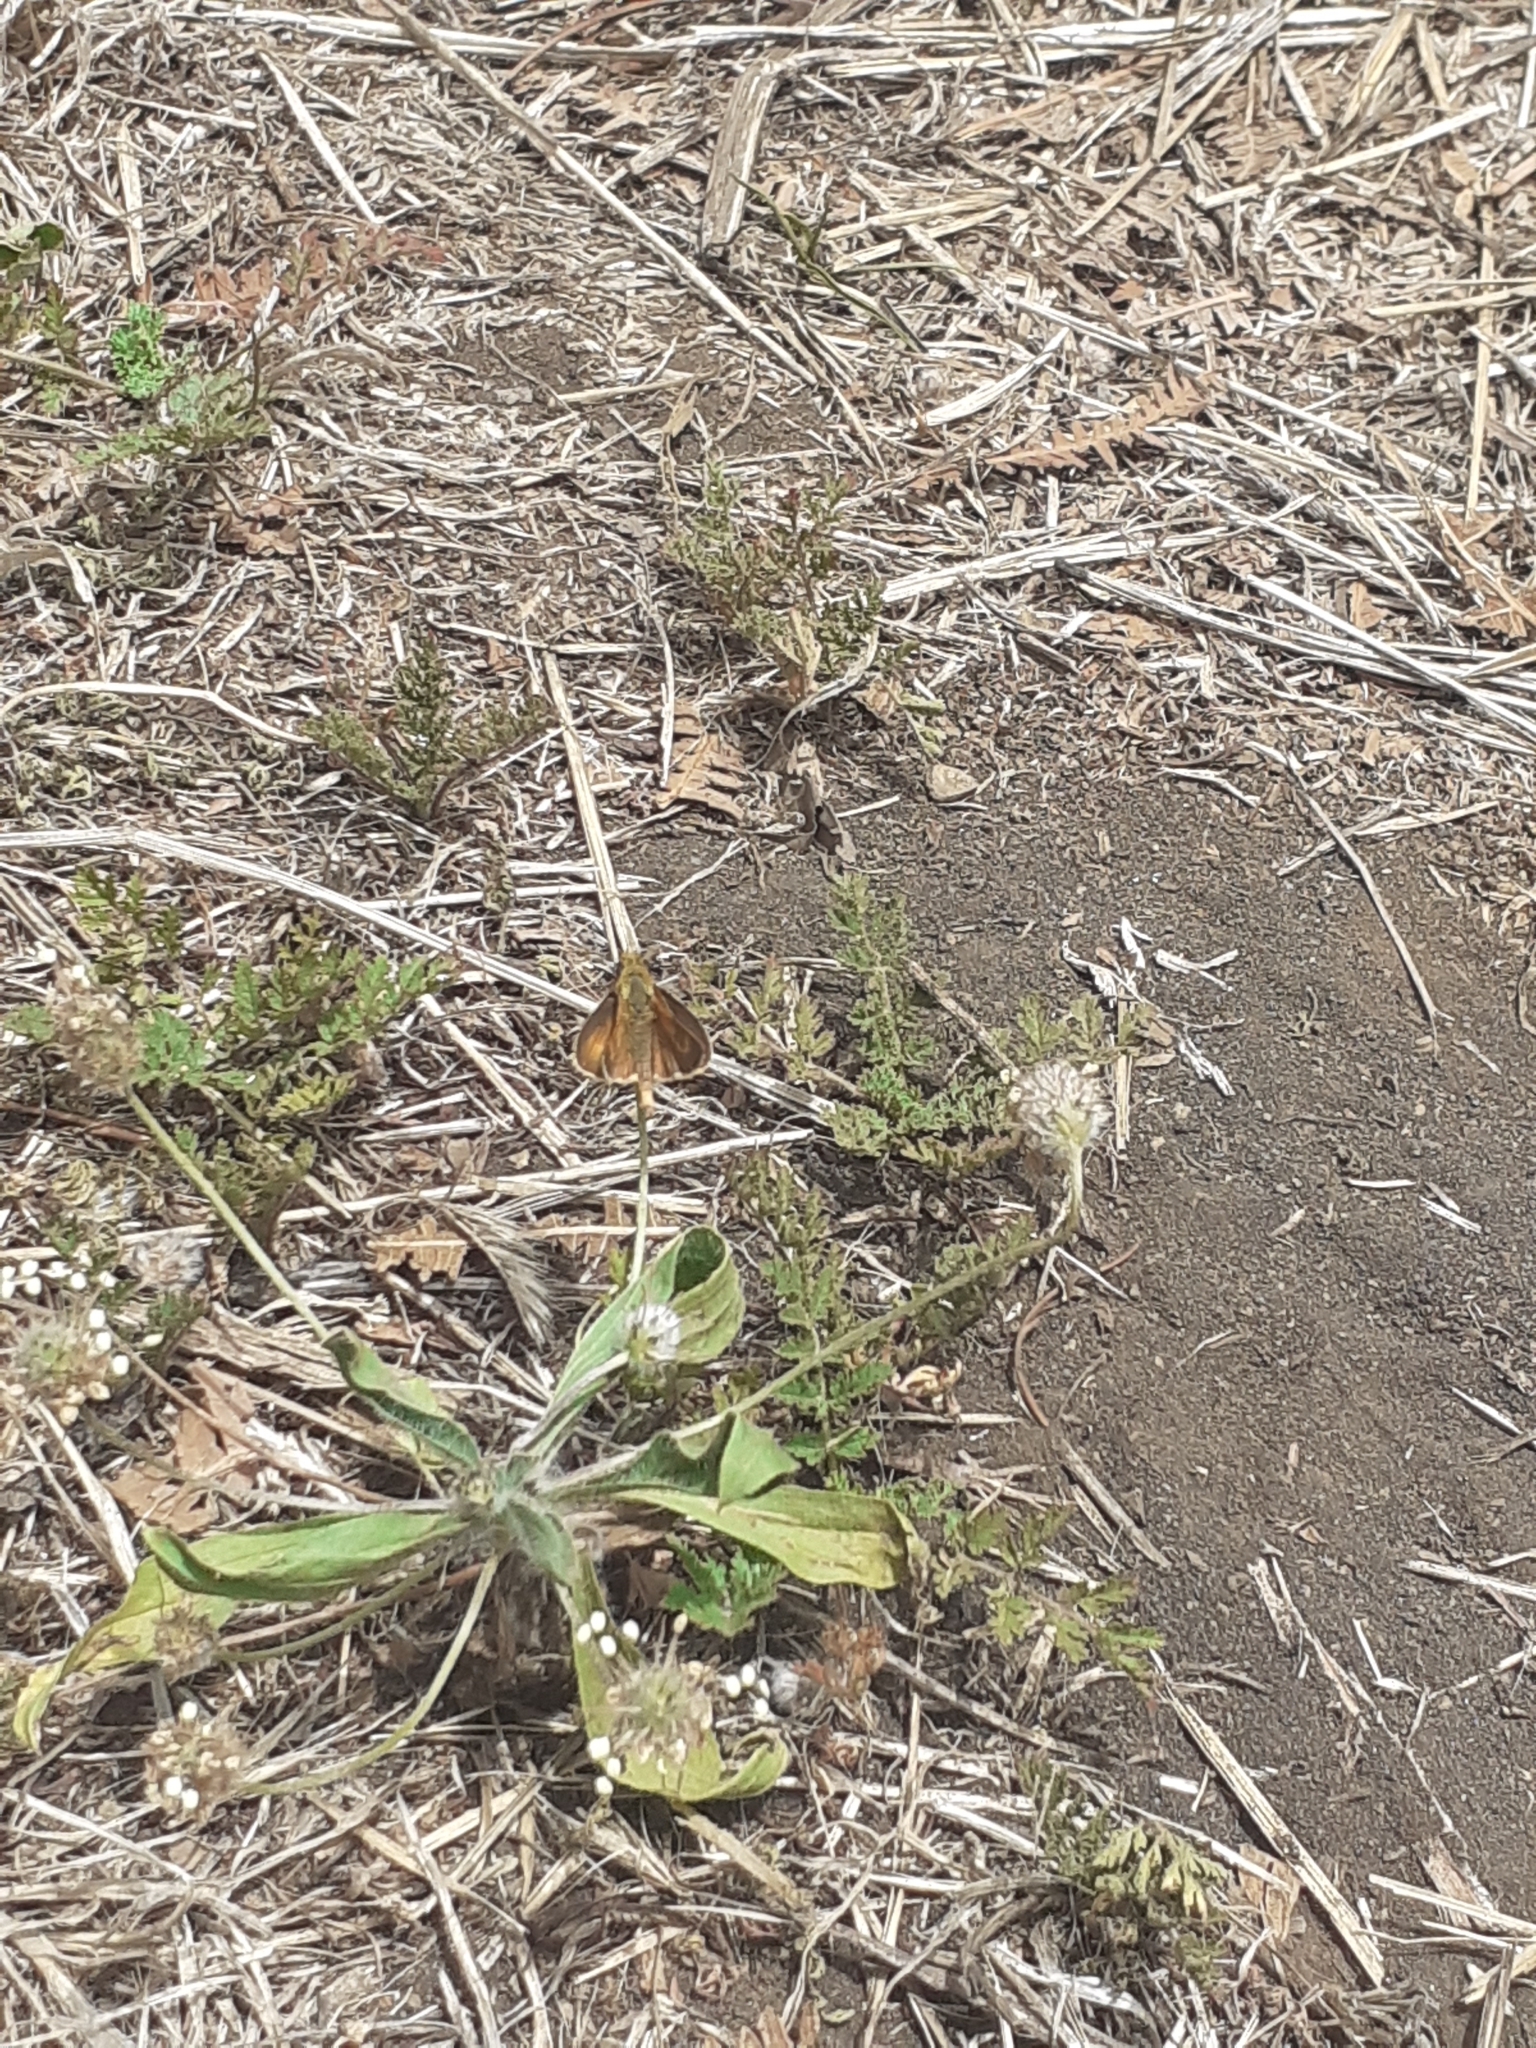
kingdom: Animalia
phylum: Arthropoda
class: Insecta
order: Lepidoptera
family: Hesperiidae
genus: Thymelicus
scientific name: Thymelicus acteon
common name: Lulworth skipper
